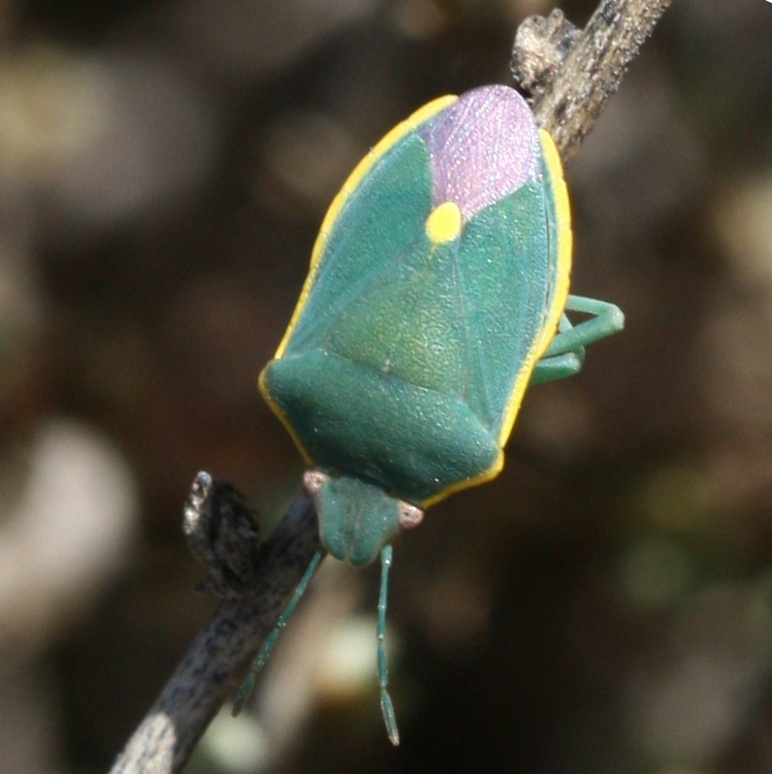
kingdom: Animalia
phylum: Arthropoda
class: Insecta
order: Hemiptera
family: Pentatomidae
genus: Brachynema
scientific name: Brachynema cinctum
